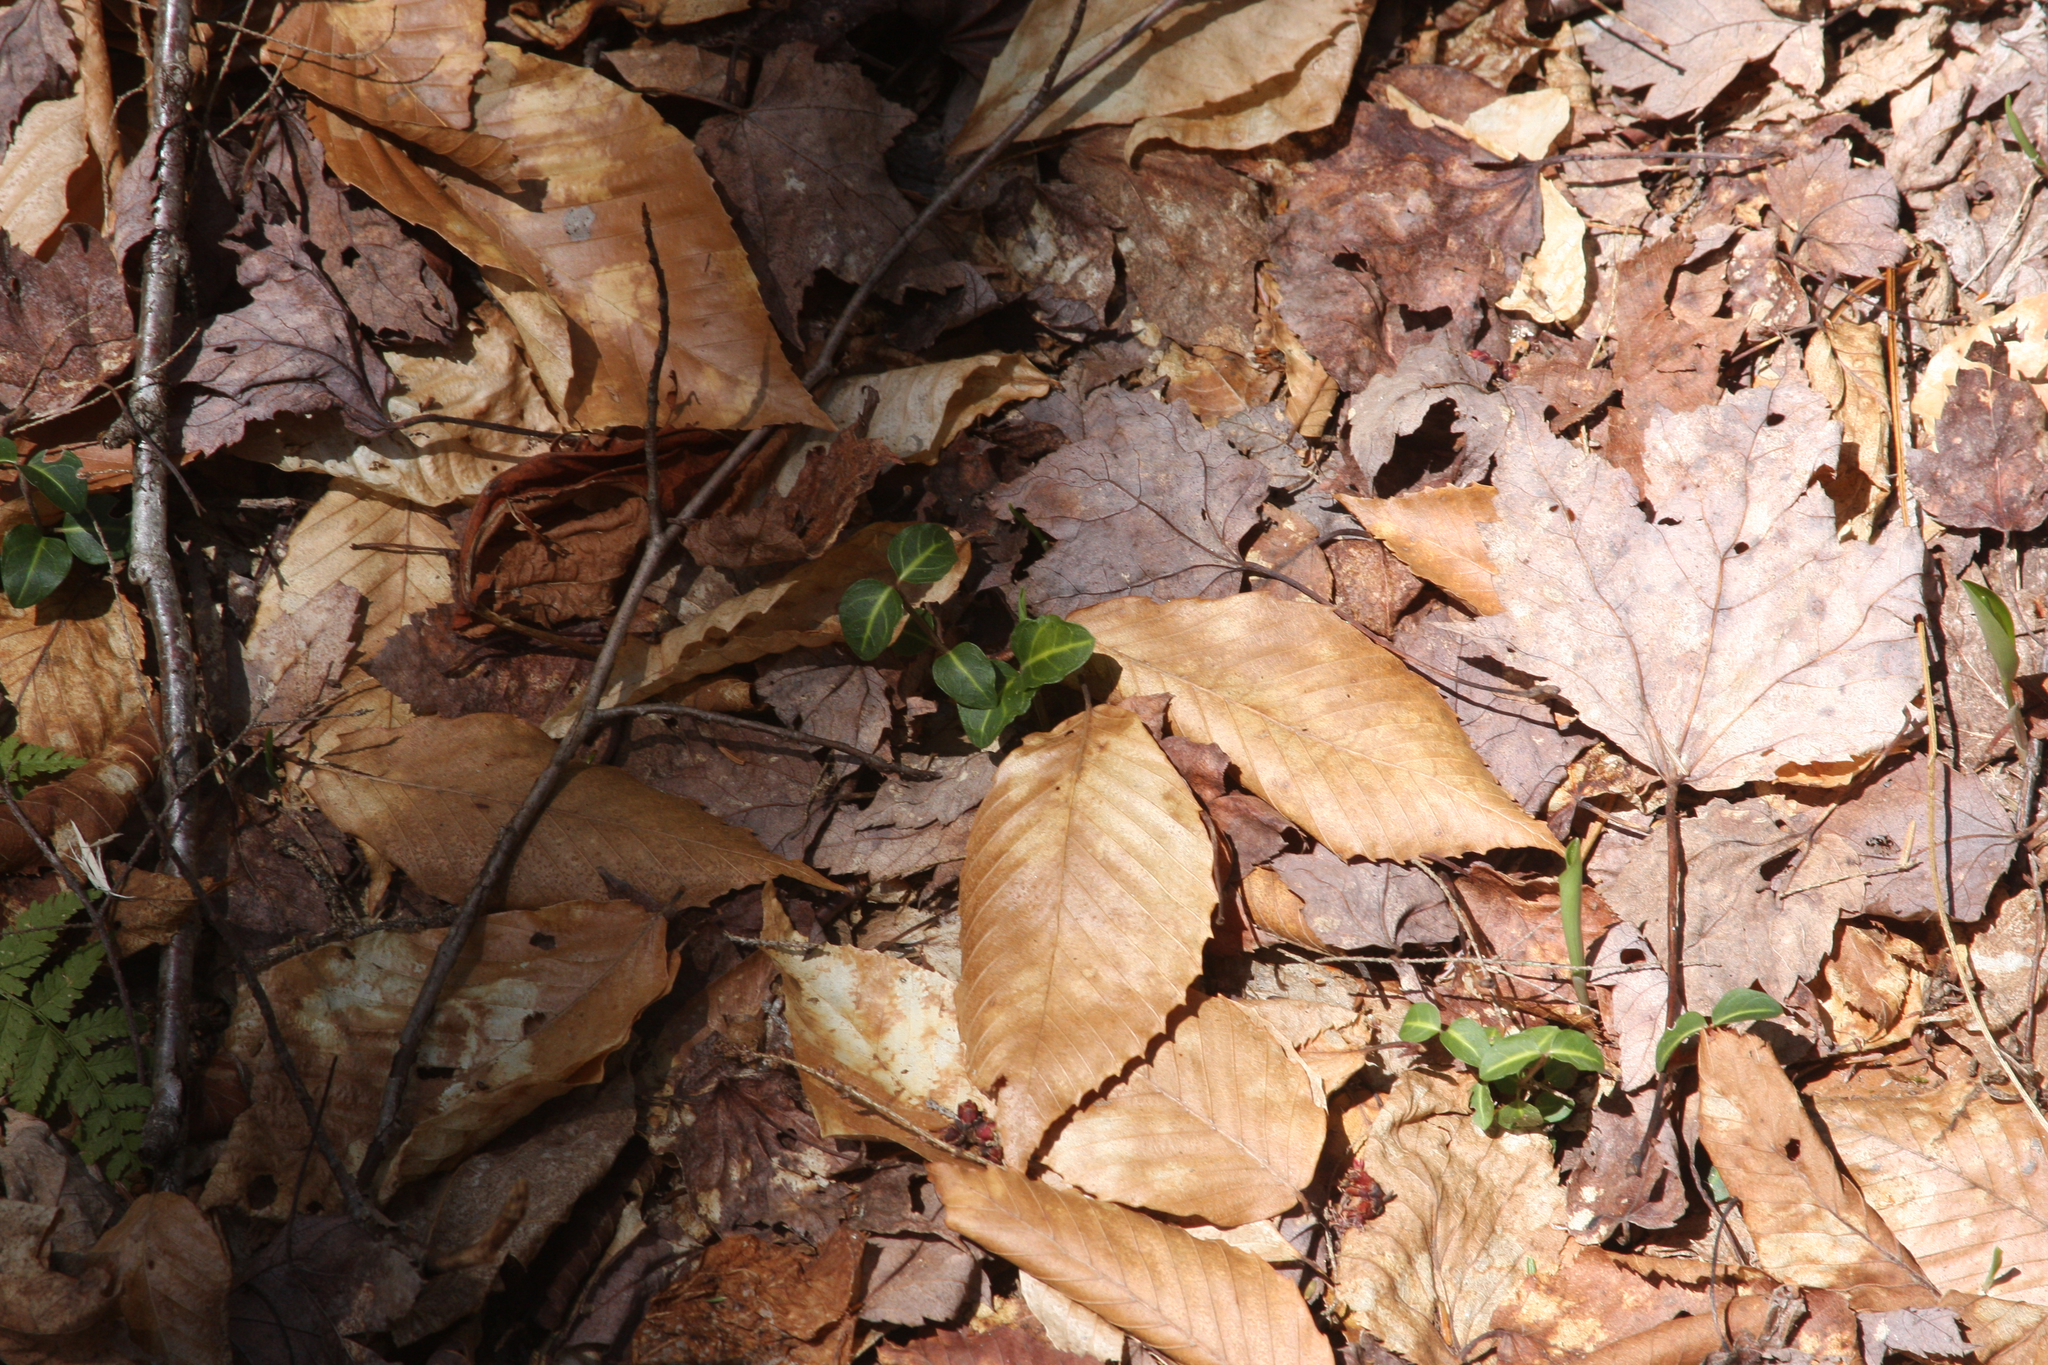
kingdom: Plantae
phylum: Tracheophyta
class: Magnoliopsida
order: Gentianales
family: Rubiaceae
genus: Mitchella
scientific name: Mitchella repens
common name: Partridge-berry
